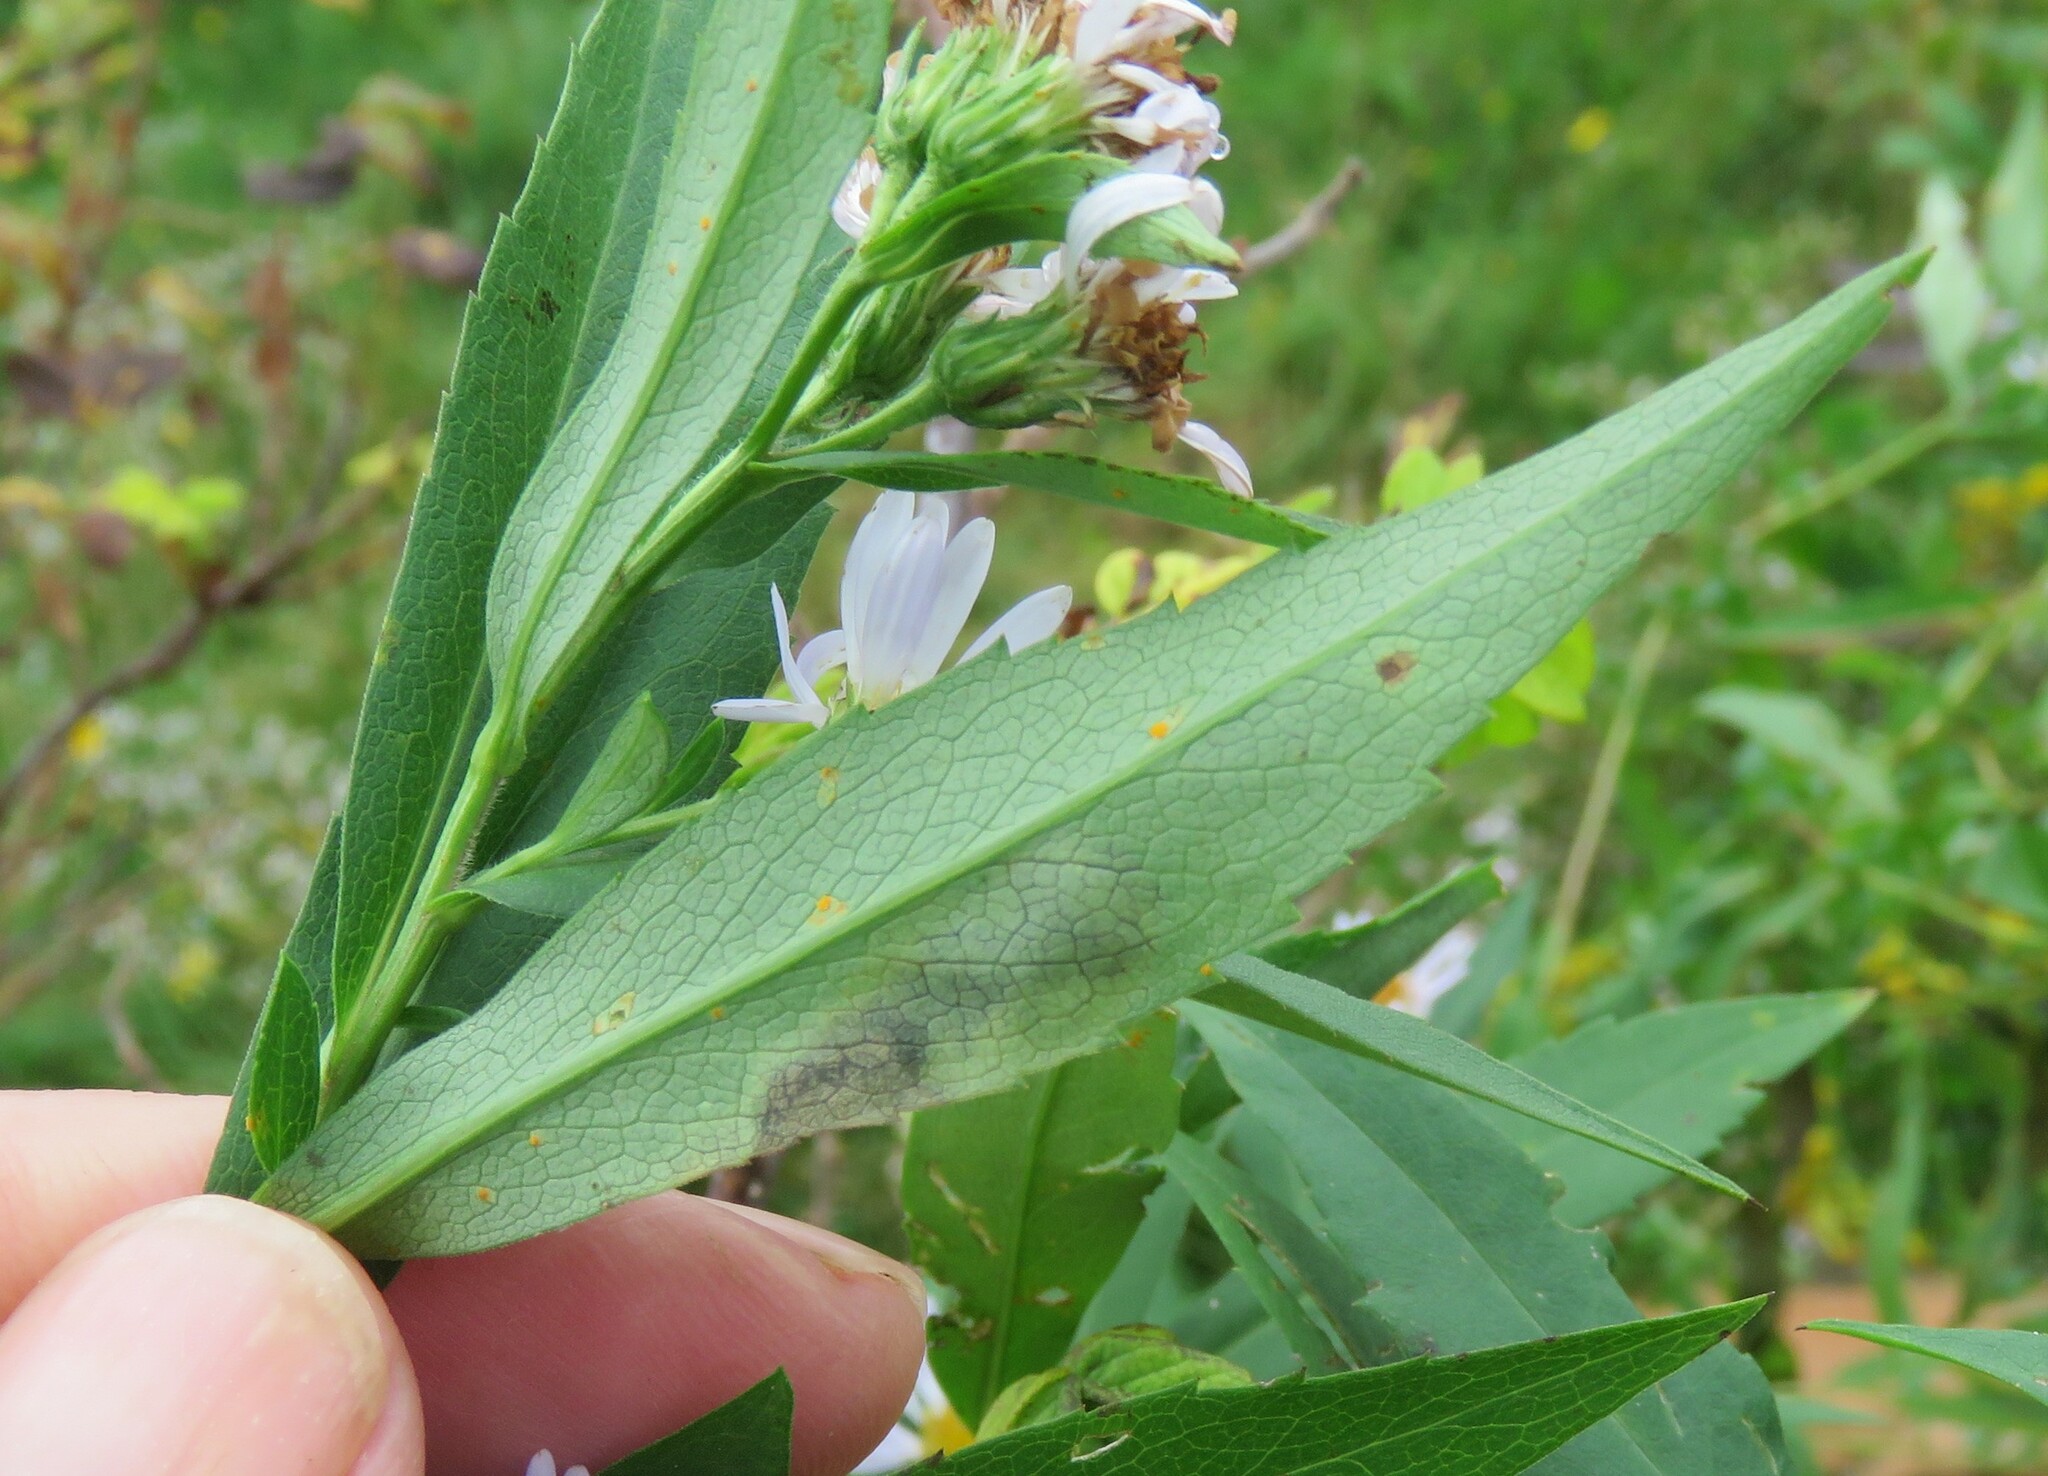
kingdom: Animalia
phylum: Arthropoda
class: Insecta
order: Diptera
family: Agromyzidae
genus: Nemorimyza
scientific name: Nemorimyza posticata
